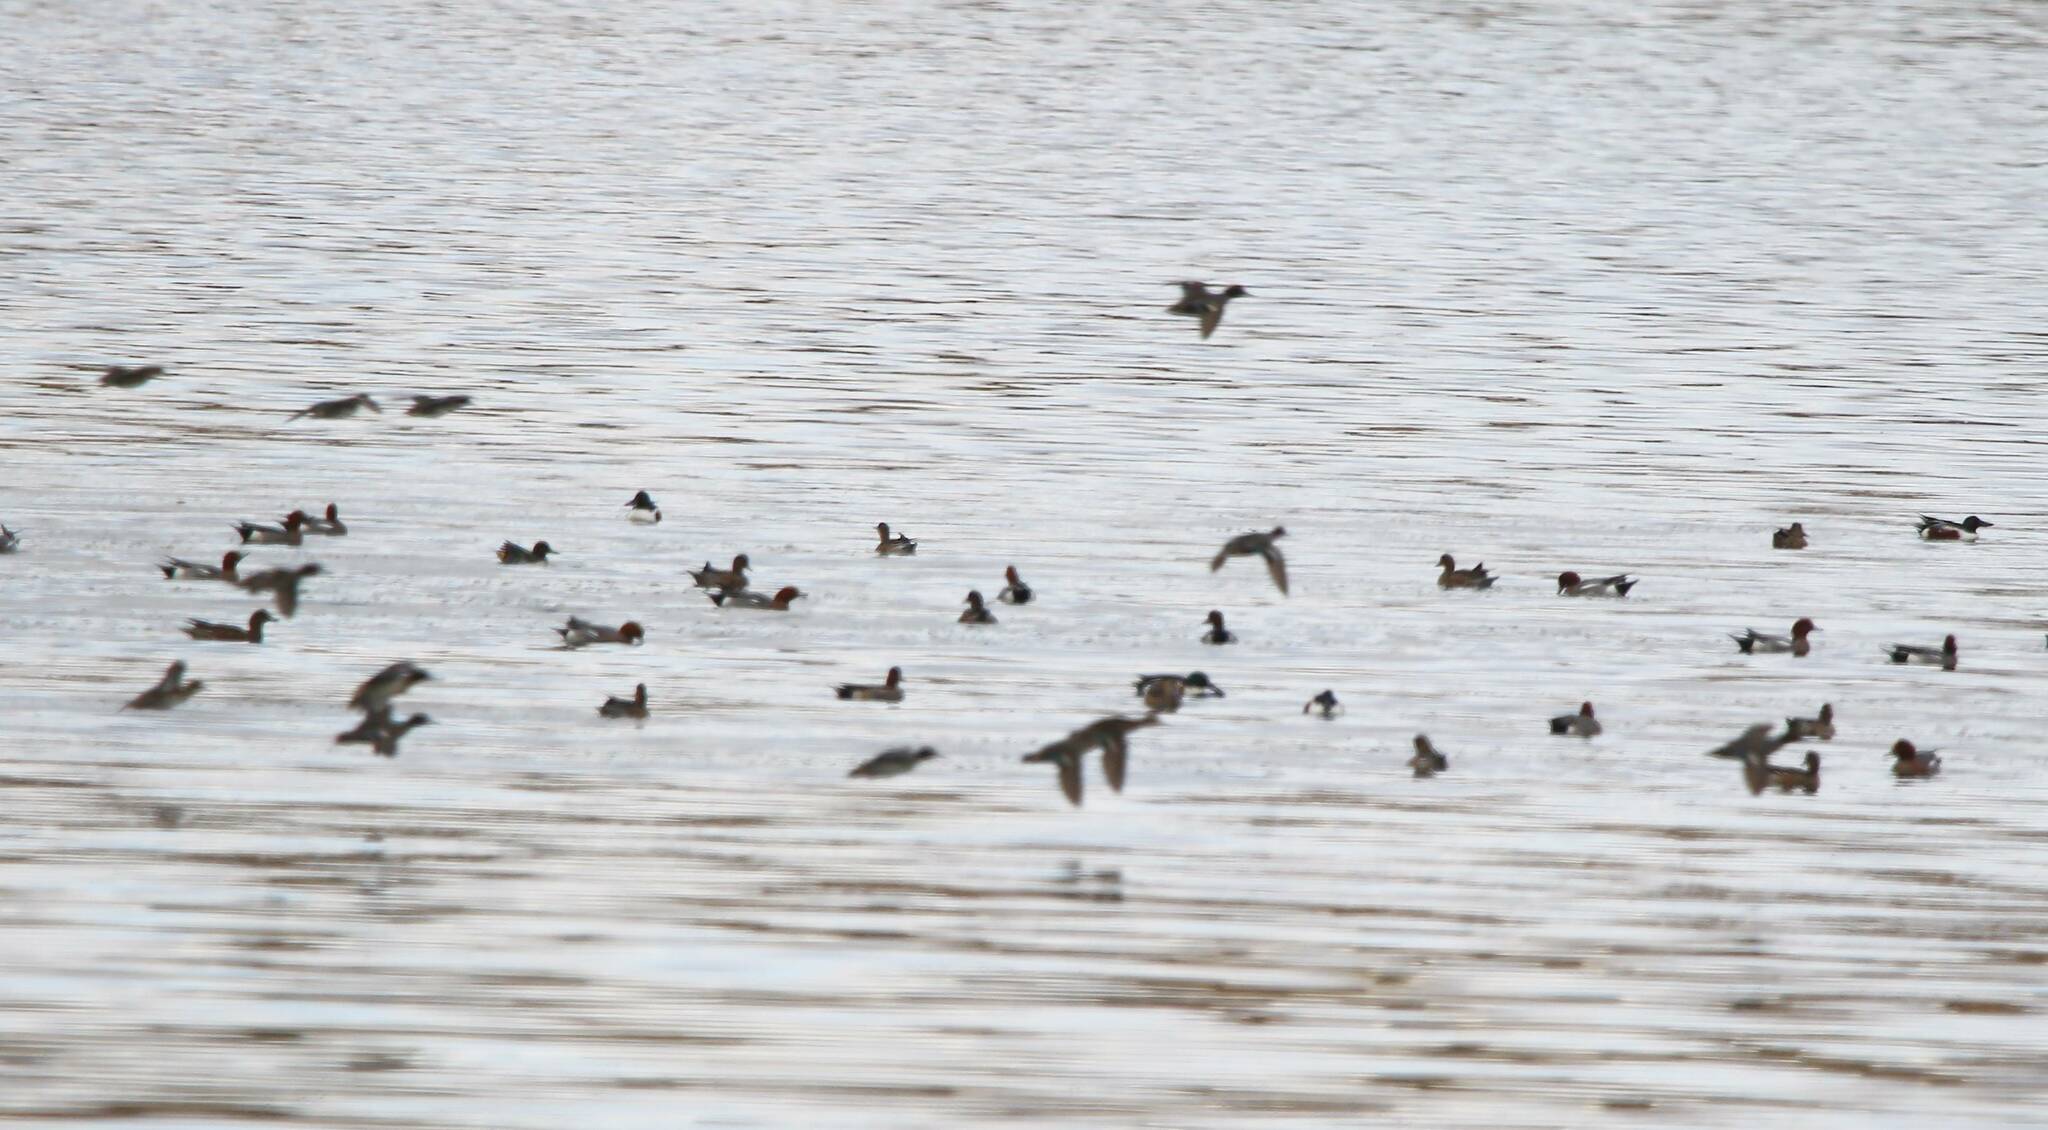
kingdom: Animalia
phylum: Chordata
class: Aves
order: Anseriformes
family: Anatidae
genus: Mareca
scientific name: Mareca penelope
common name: Eurasian wigeon
